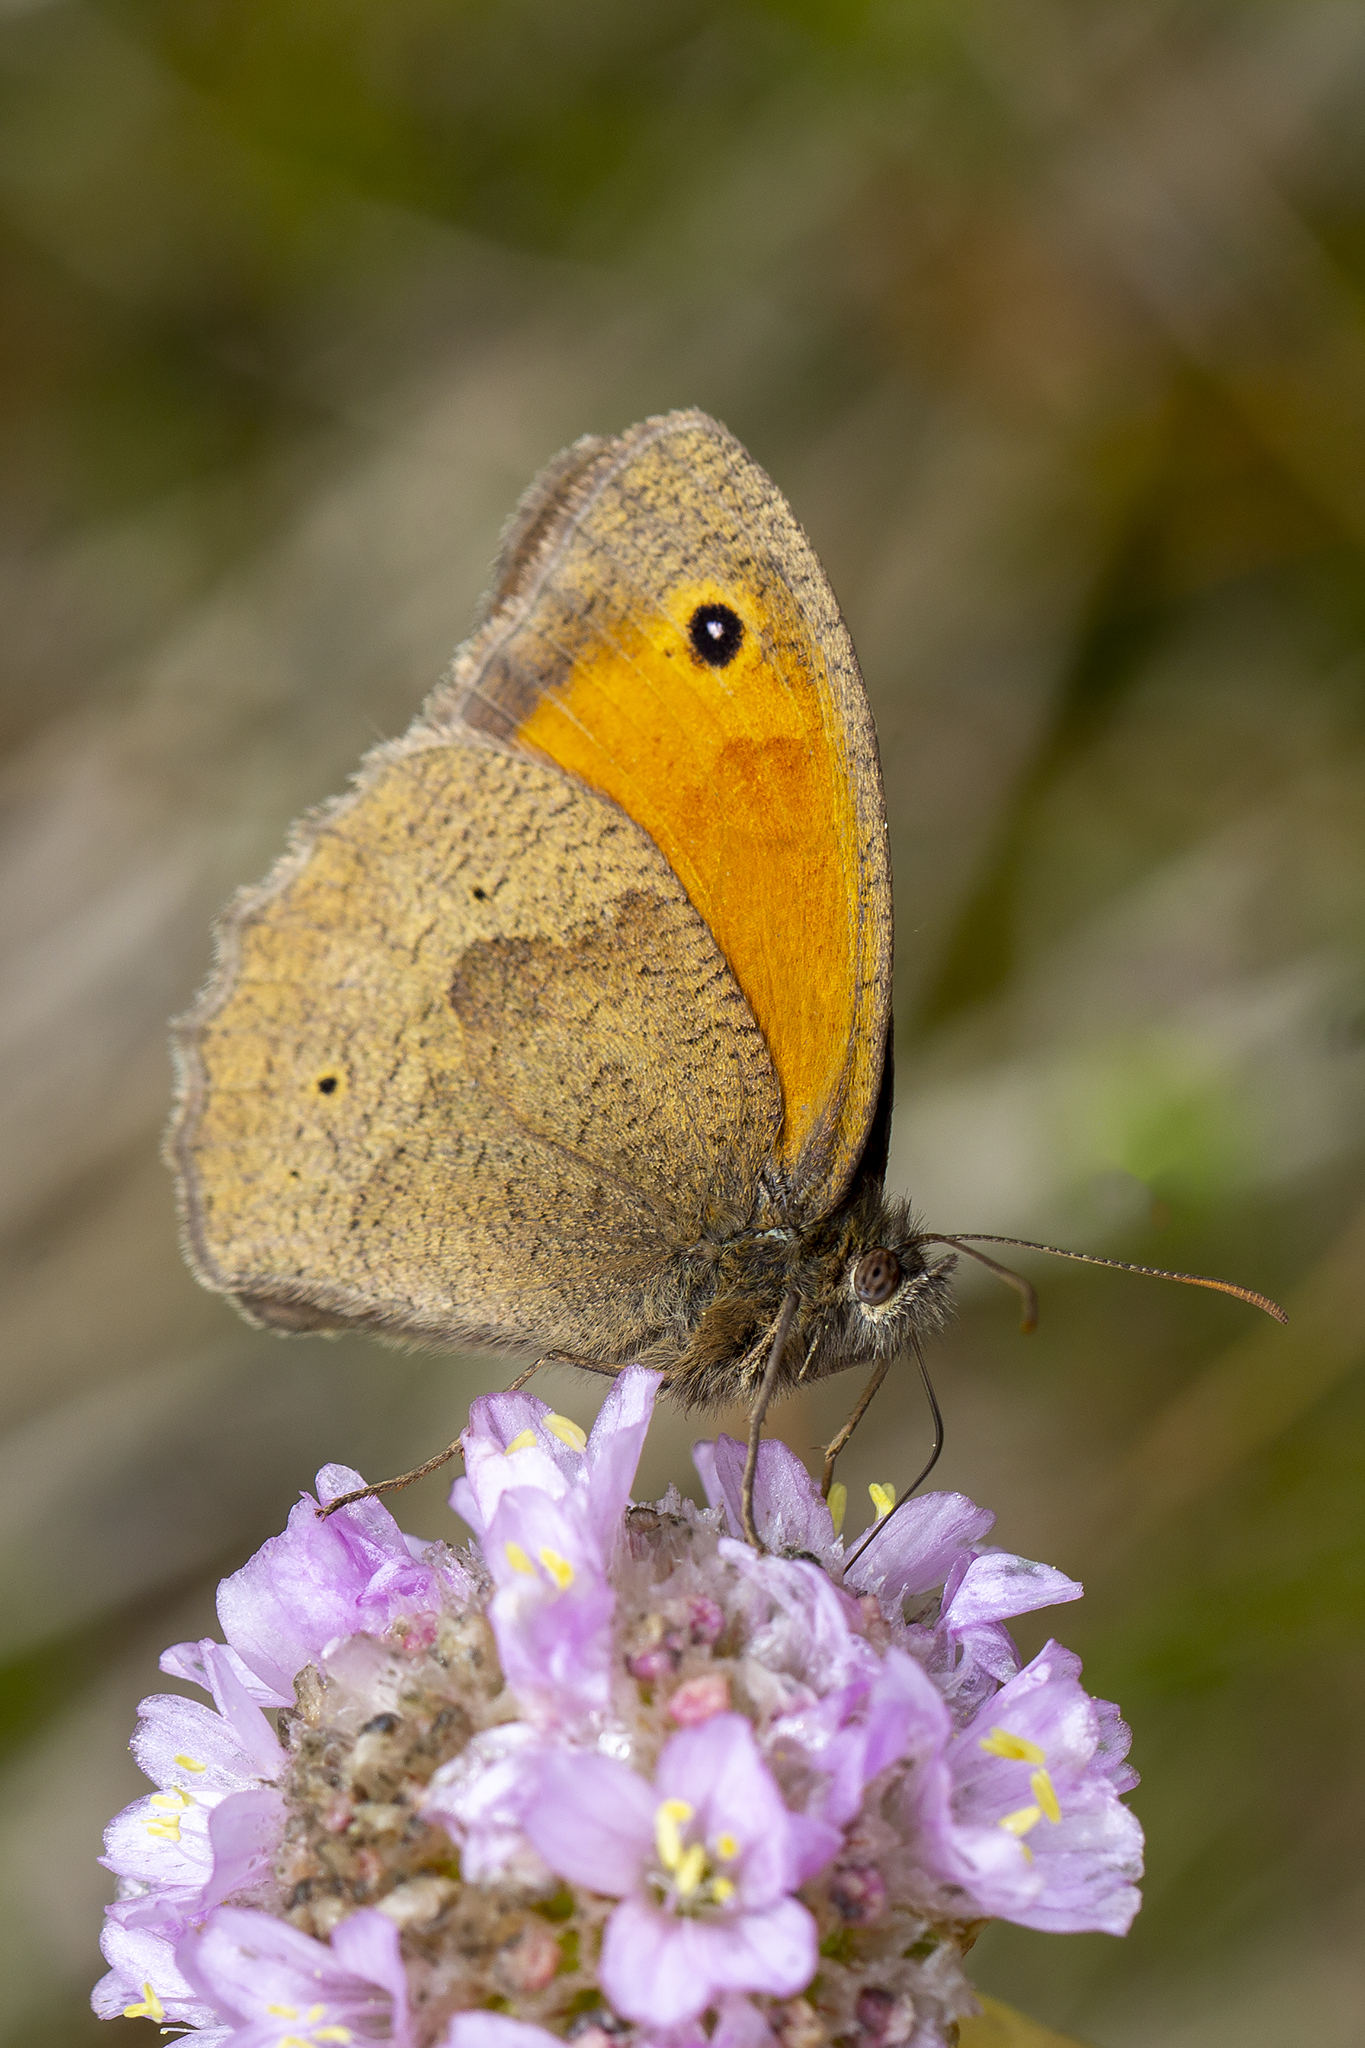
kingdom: Animalia
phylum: Arthropoda
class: Insecta
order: Lepidoptera
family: Nymphalidae
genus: Maniola
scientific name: Maniola jurtina
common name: Meadow brown
